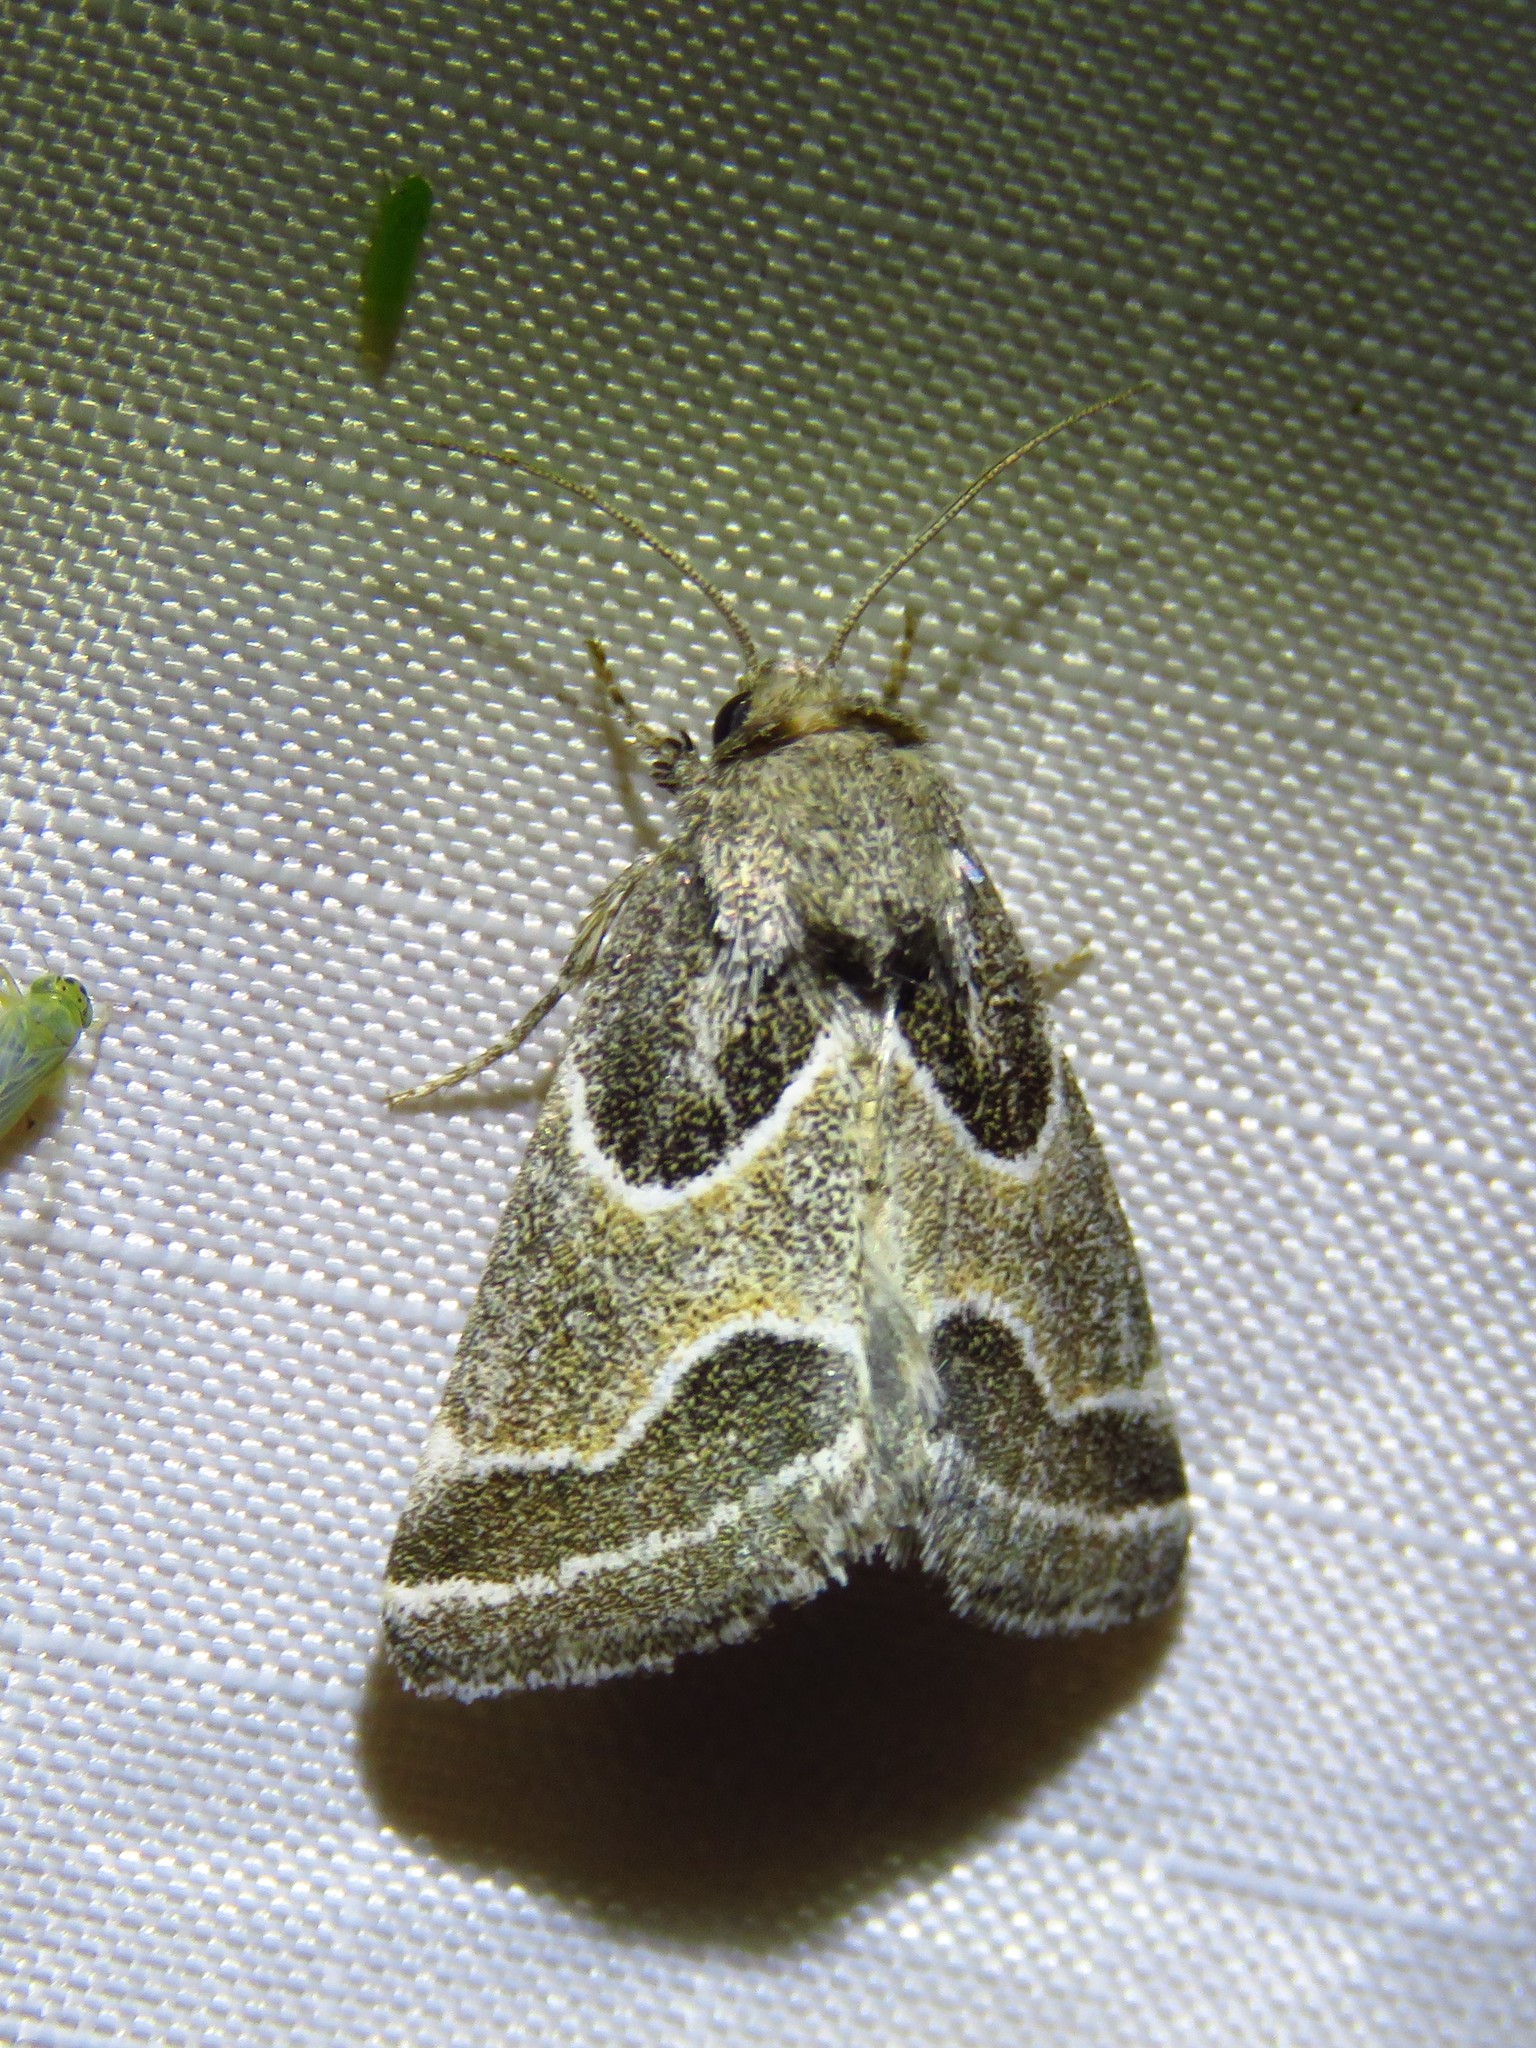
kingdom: Animalia
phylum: Arthropoda
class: Insecta
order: Lepidoptera
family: Noctuidae
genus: Schinia
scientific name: Schinia rivulosa
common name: Scarce meal-moth
